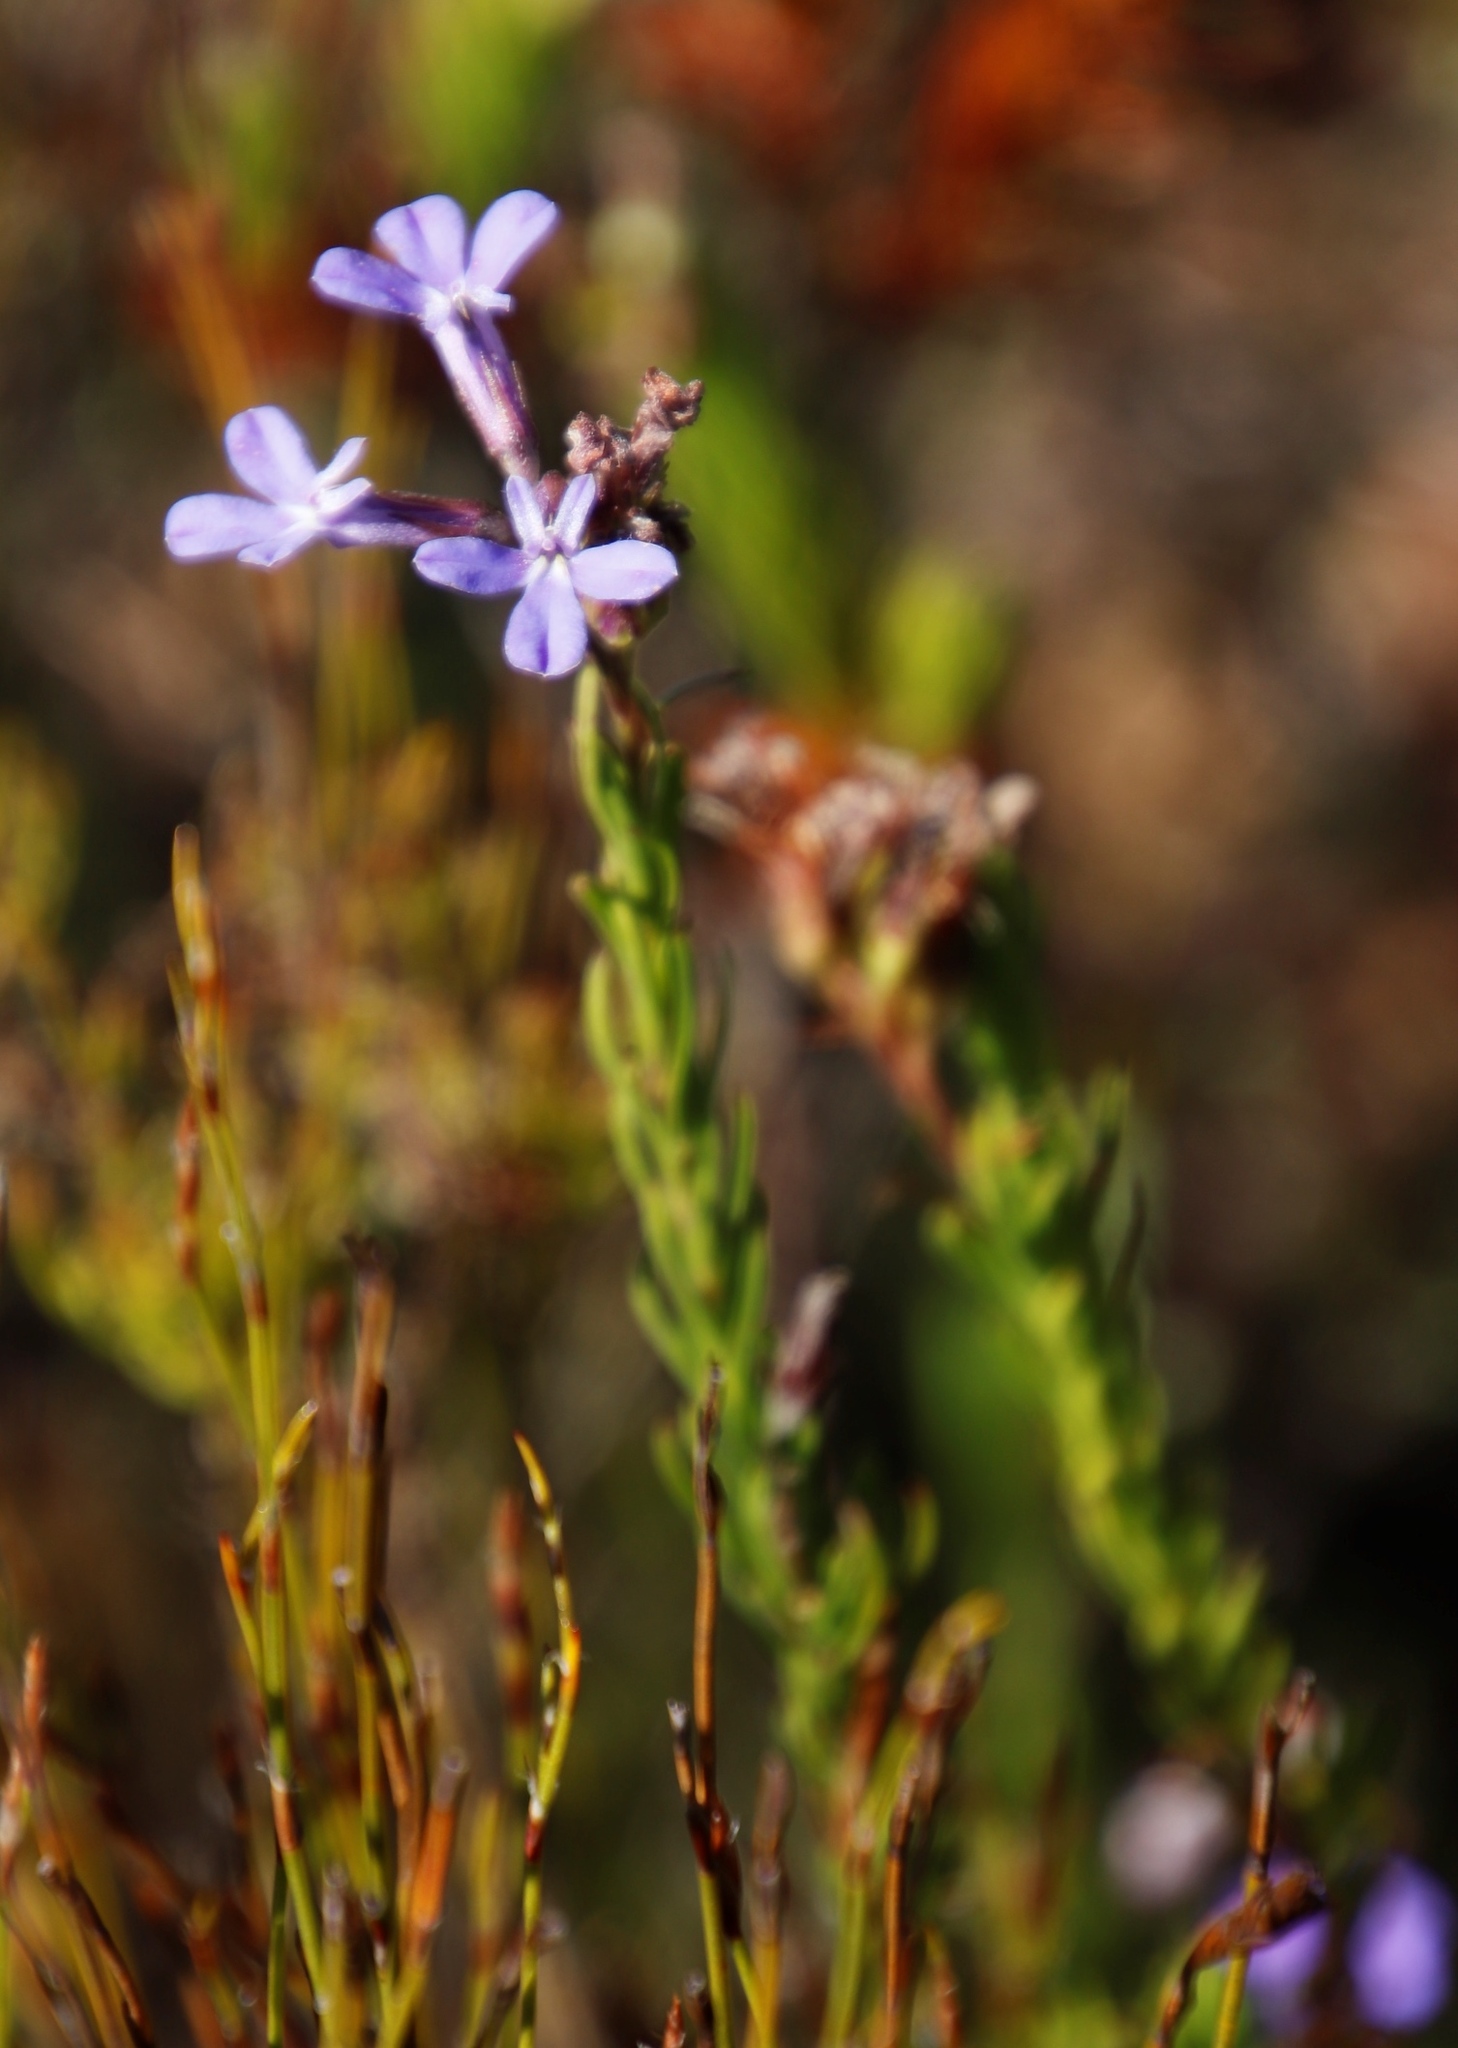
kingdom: Plantae
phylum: Tracheophyta
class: Magnoliopsida
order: Asterales
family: Campanulaceae
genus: Lobelia
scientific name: Lobelia pinifolia
